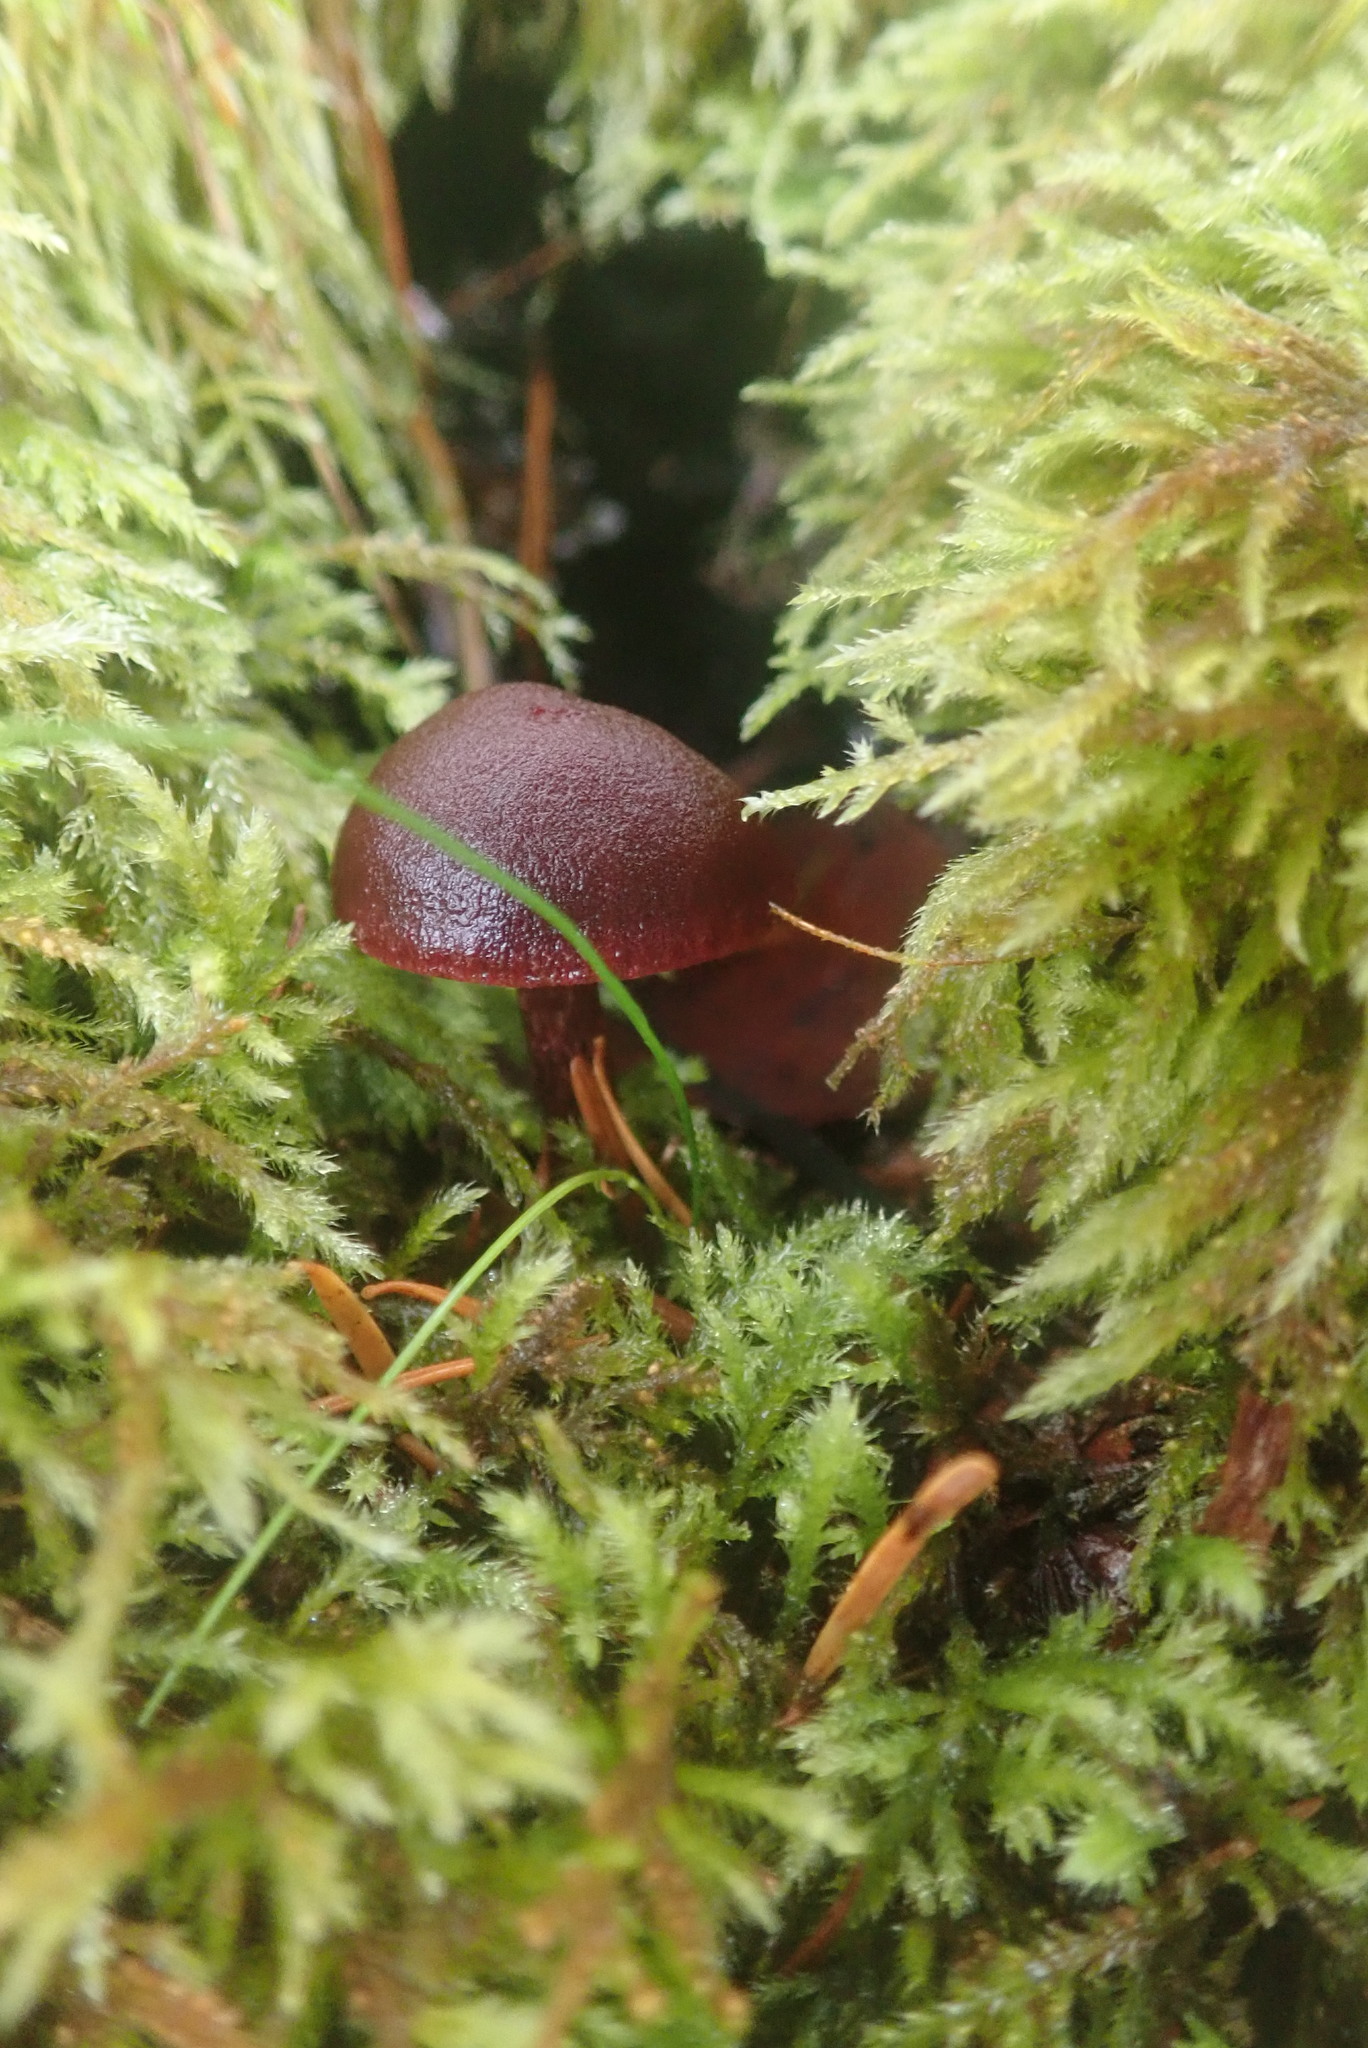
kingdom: Fungi
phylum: Basidiomycota
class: Agaricomycetes
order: Agaricales
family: Tubariaceae
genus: Tubaria
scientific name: Tubaria punicea
